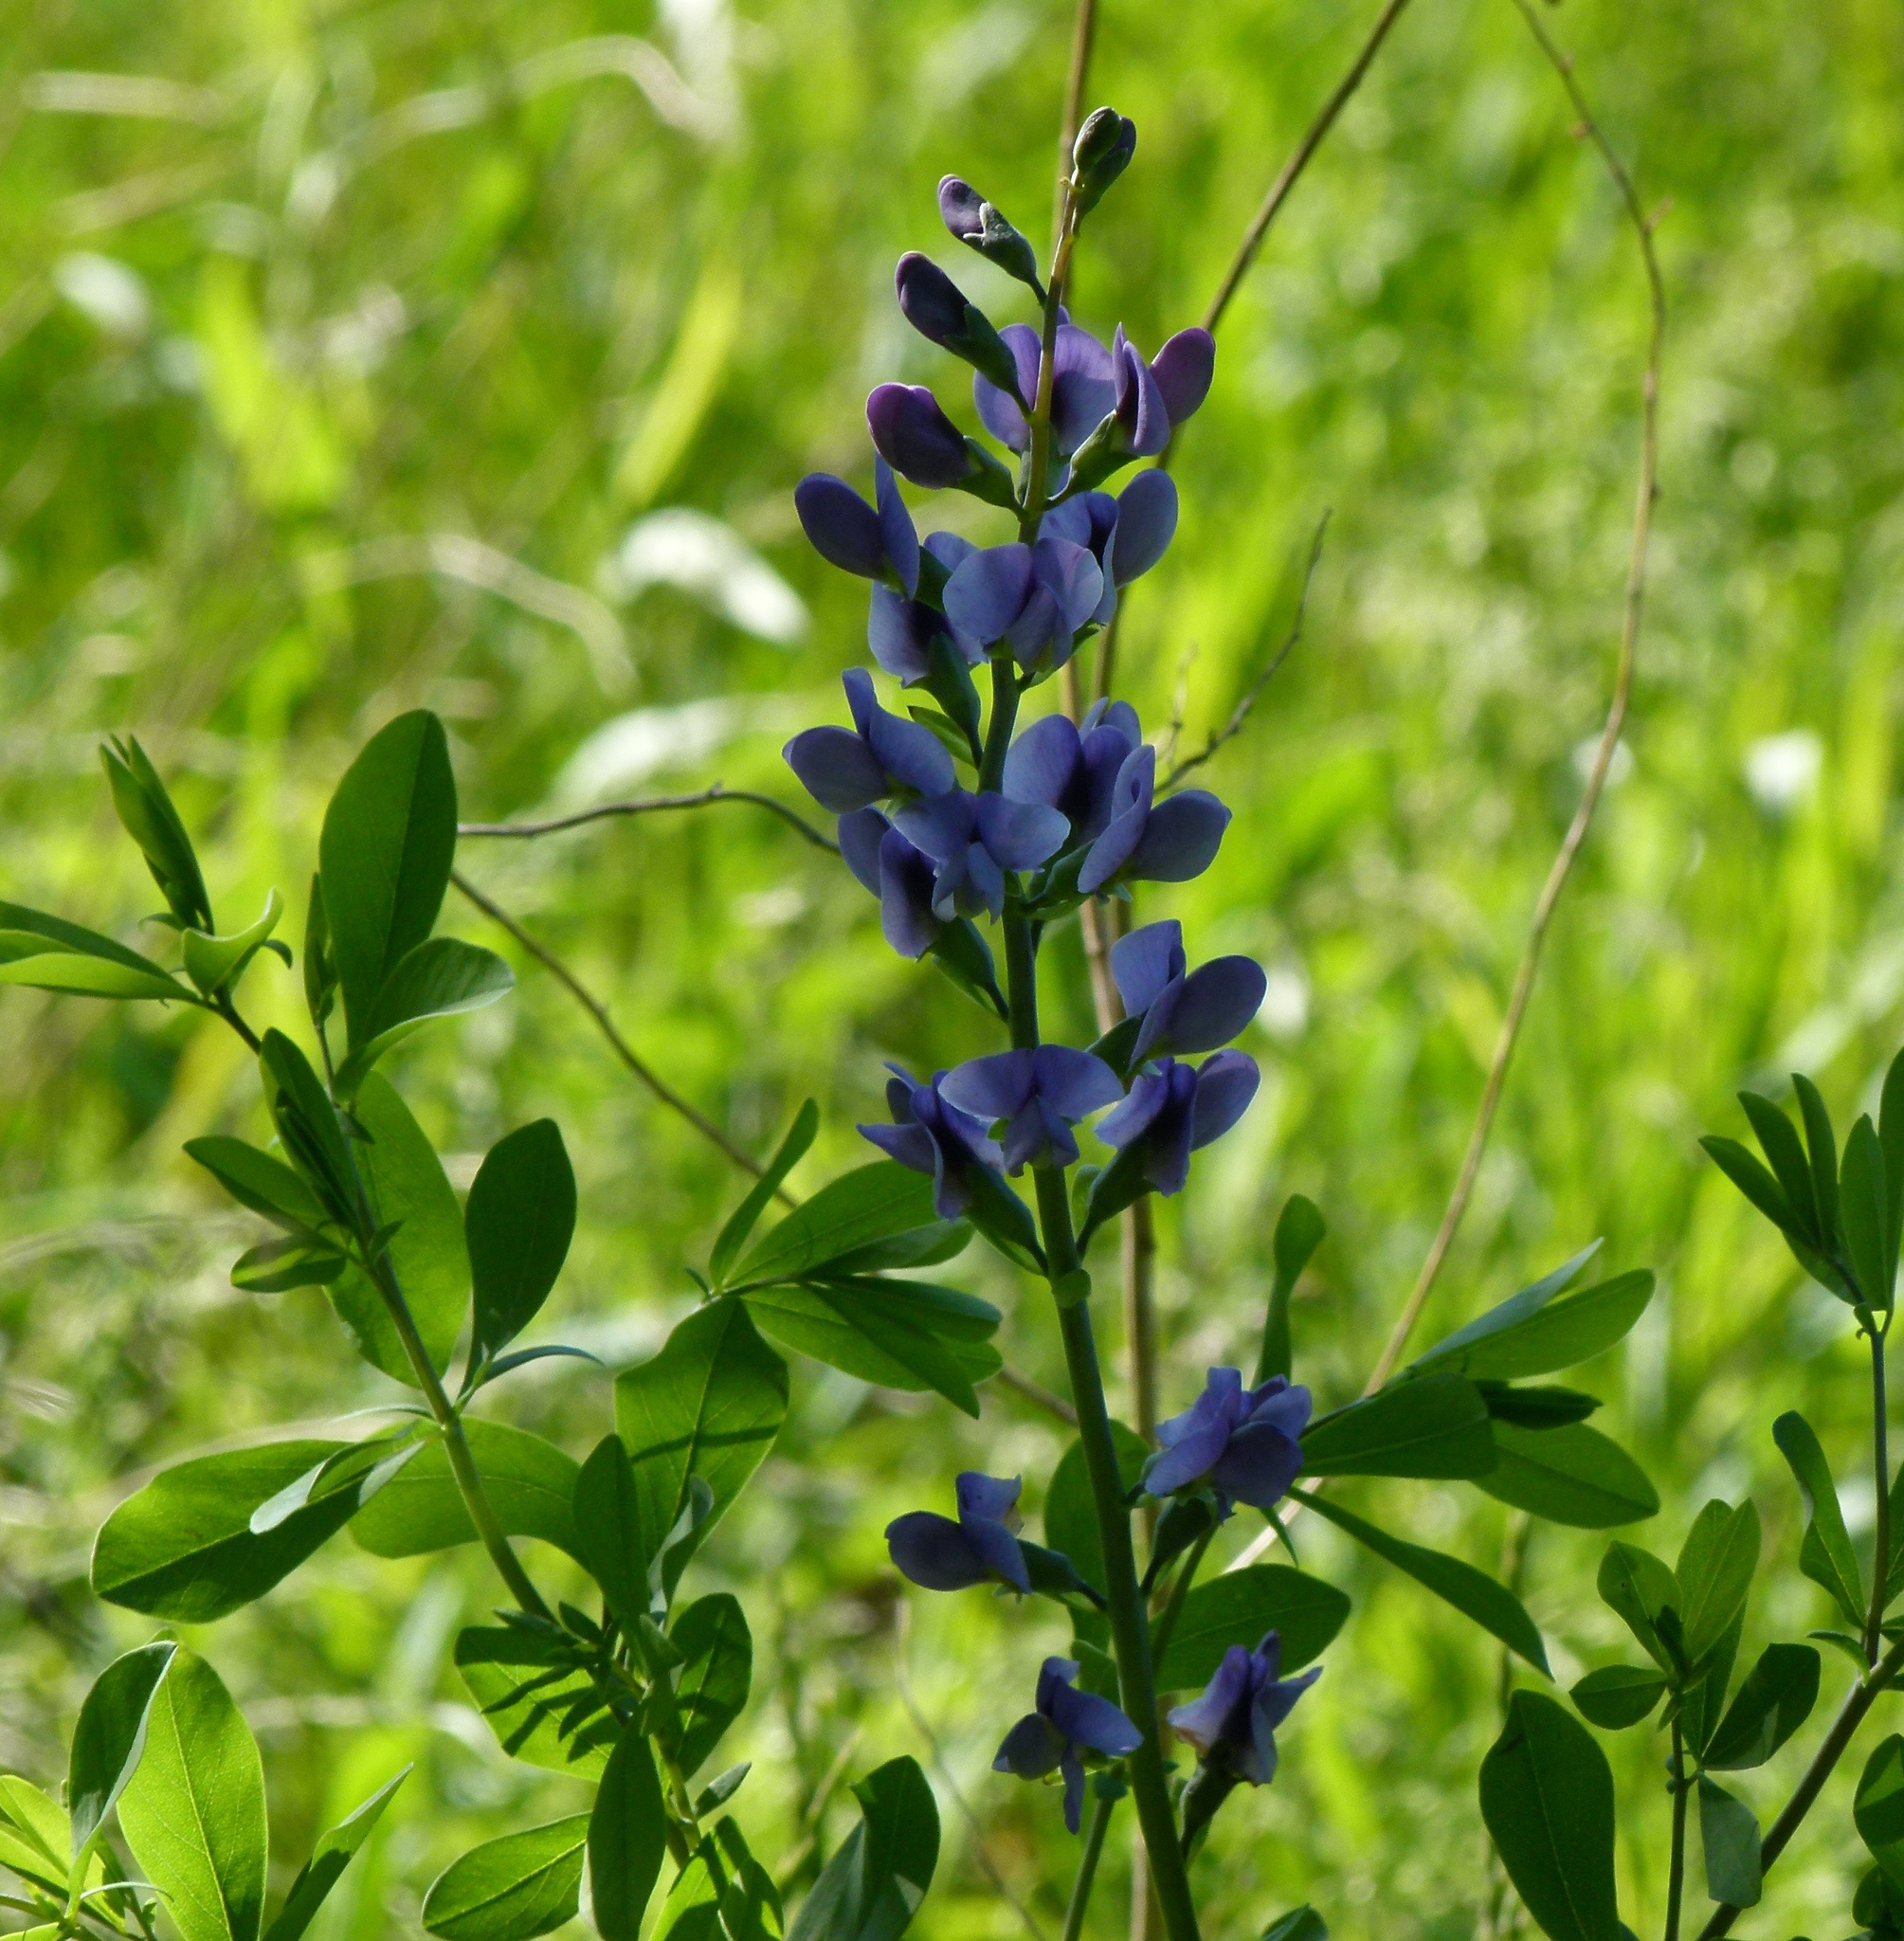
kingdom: Plantae
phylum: Tracheophyta
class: Magnoliopsida
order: Fabales
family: Fabaceae
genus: Baptisia
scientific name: Baptisia australis
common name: Blue false indigo
